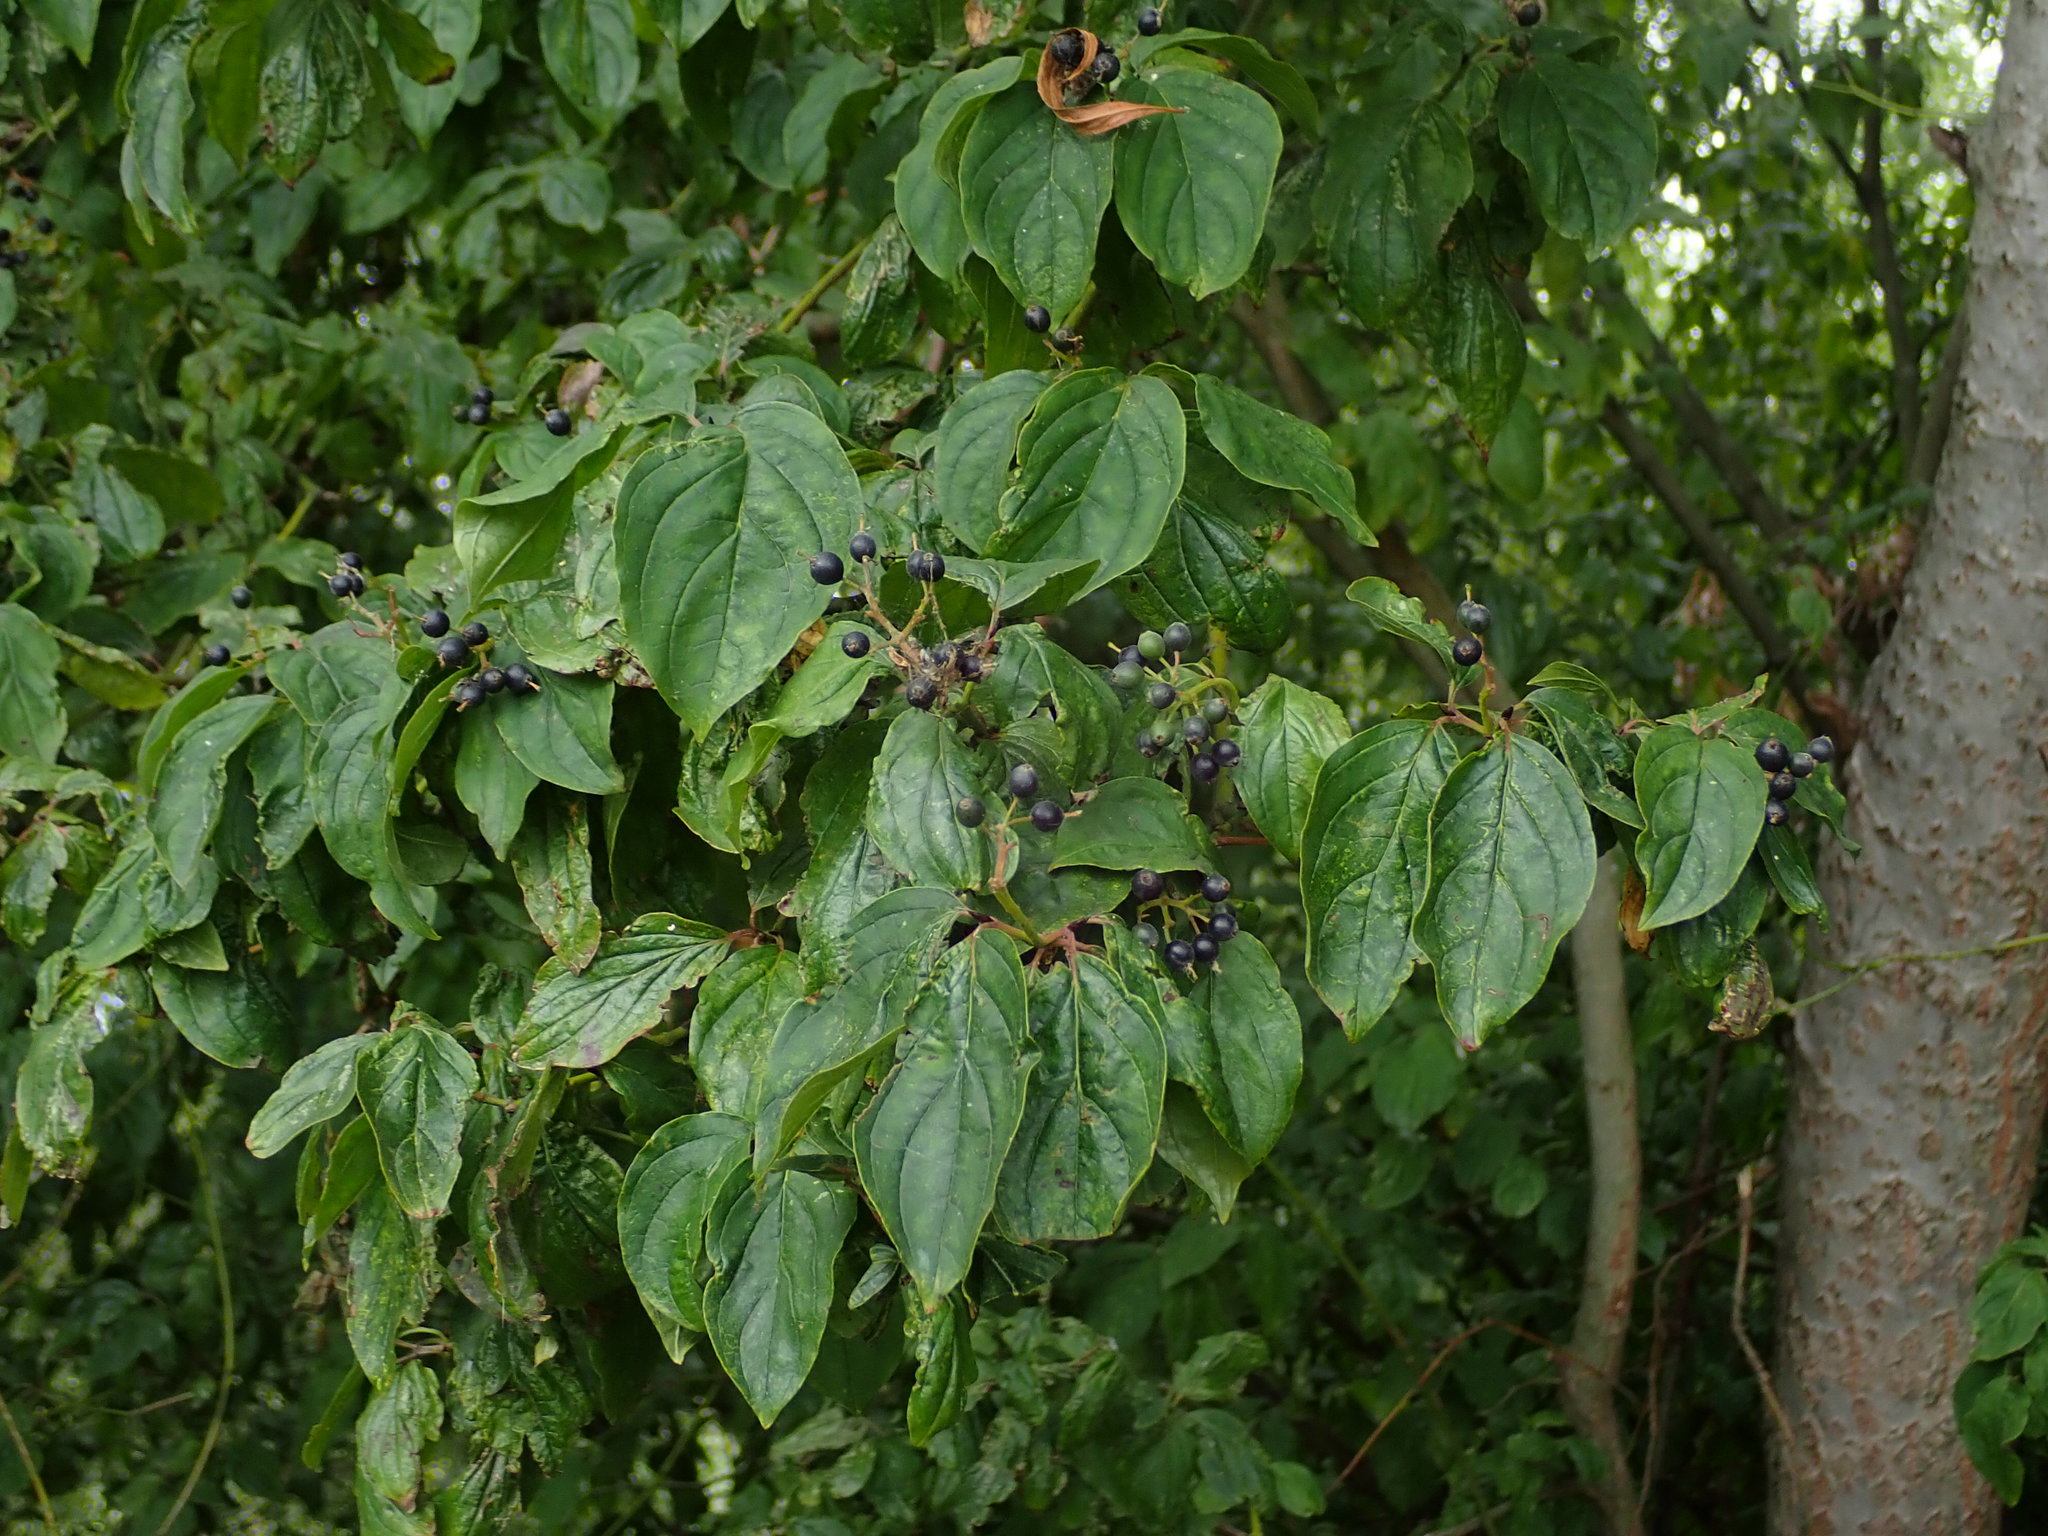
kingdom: Plantae
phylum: Tracheophyta
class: Magnoliopsida
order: Cornales
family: Cornaceae
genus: Cornus
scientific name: Cornus sanguinea
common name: Dogwood
